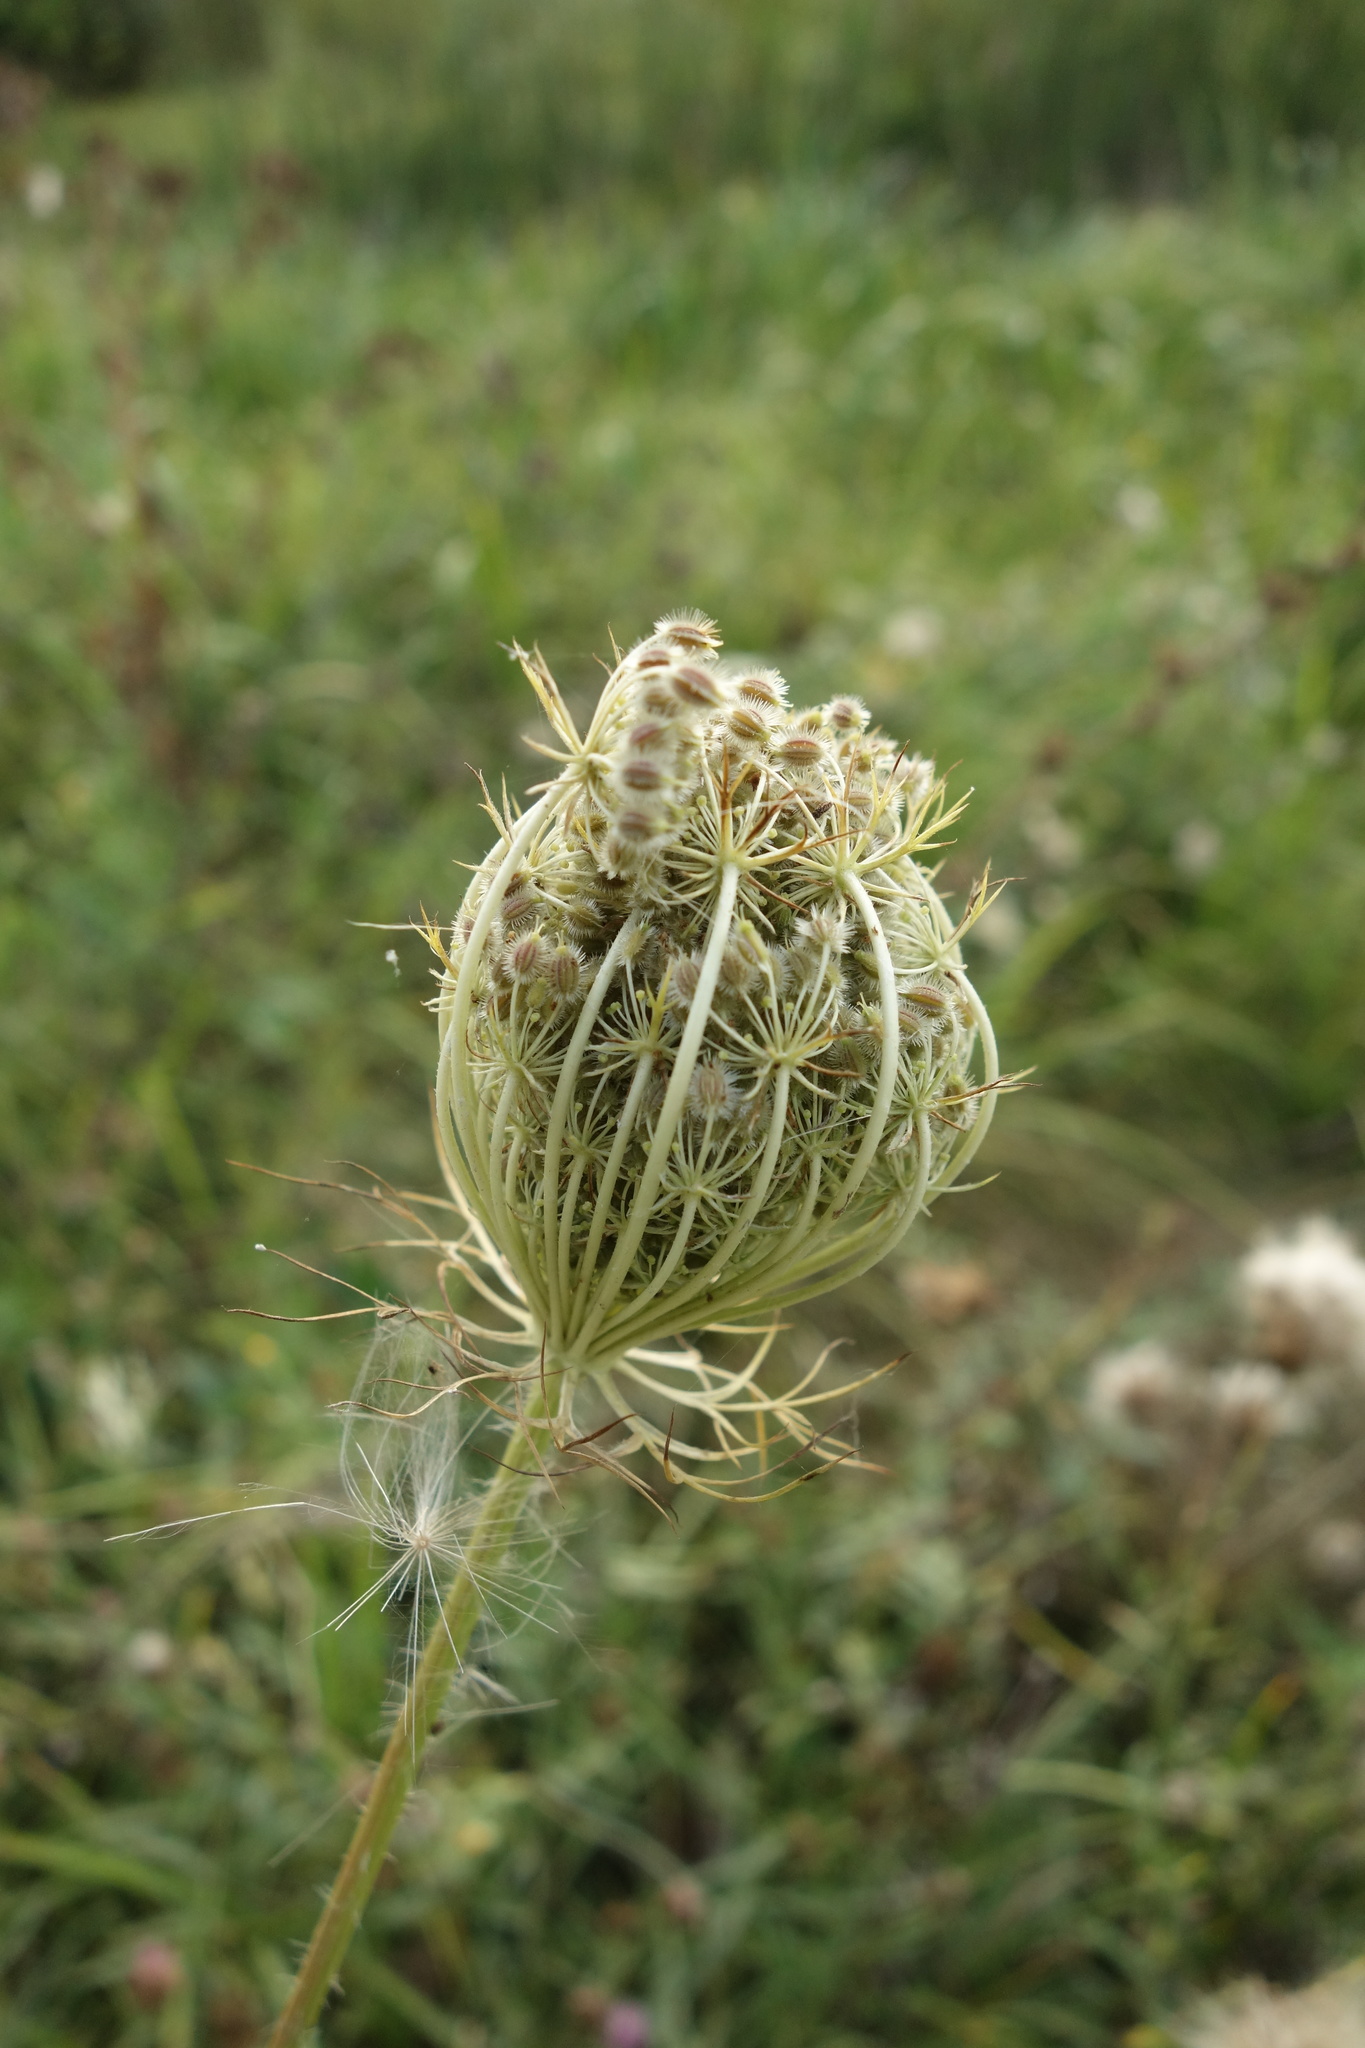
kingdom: Plantae
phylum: Tracheophyta
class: Magnoliopsida
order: Apiales
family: Apiaceae
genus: Daucus
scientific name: Daucus carota
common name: Wild carrot
